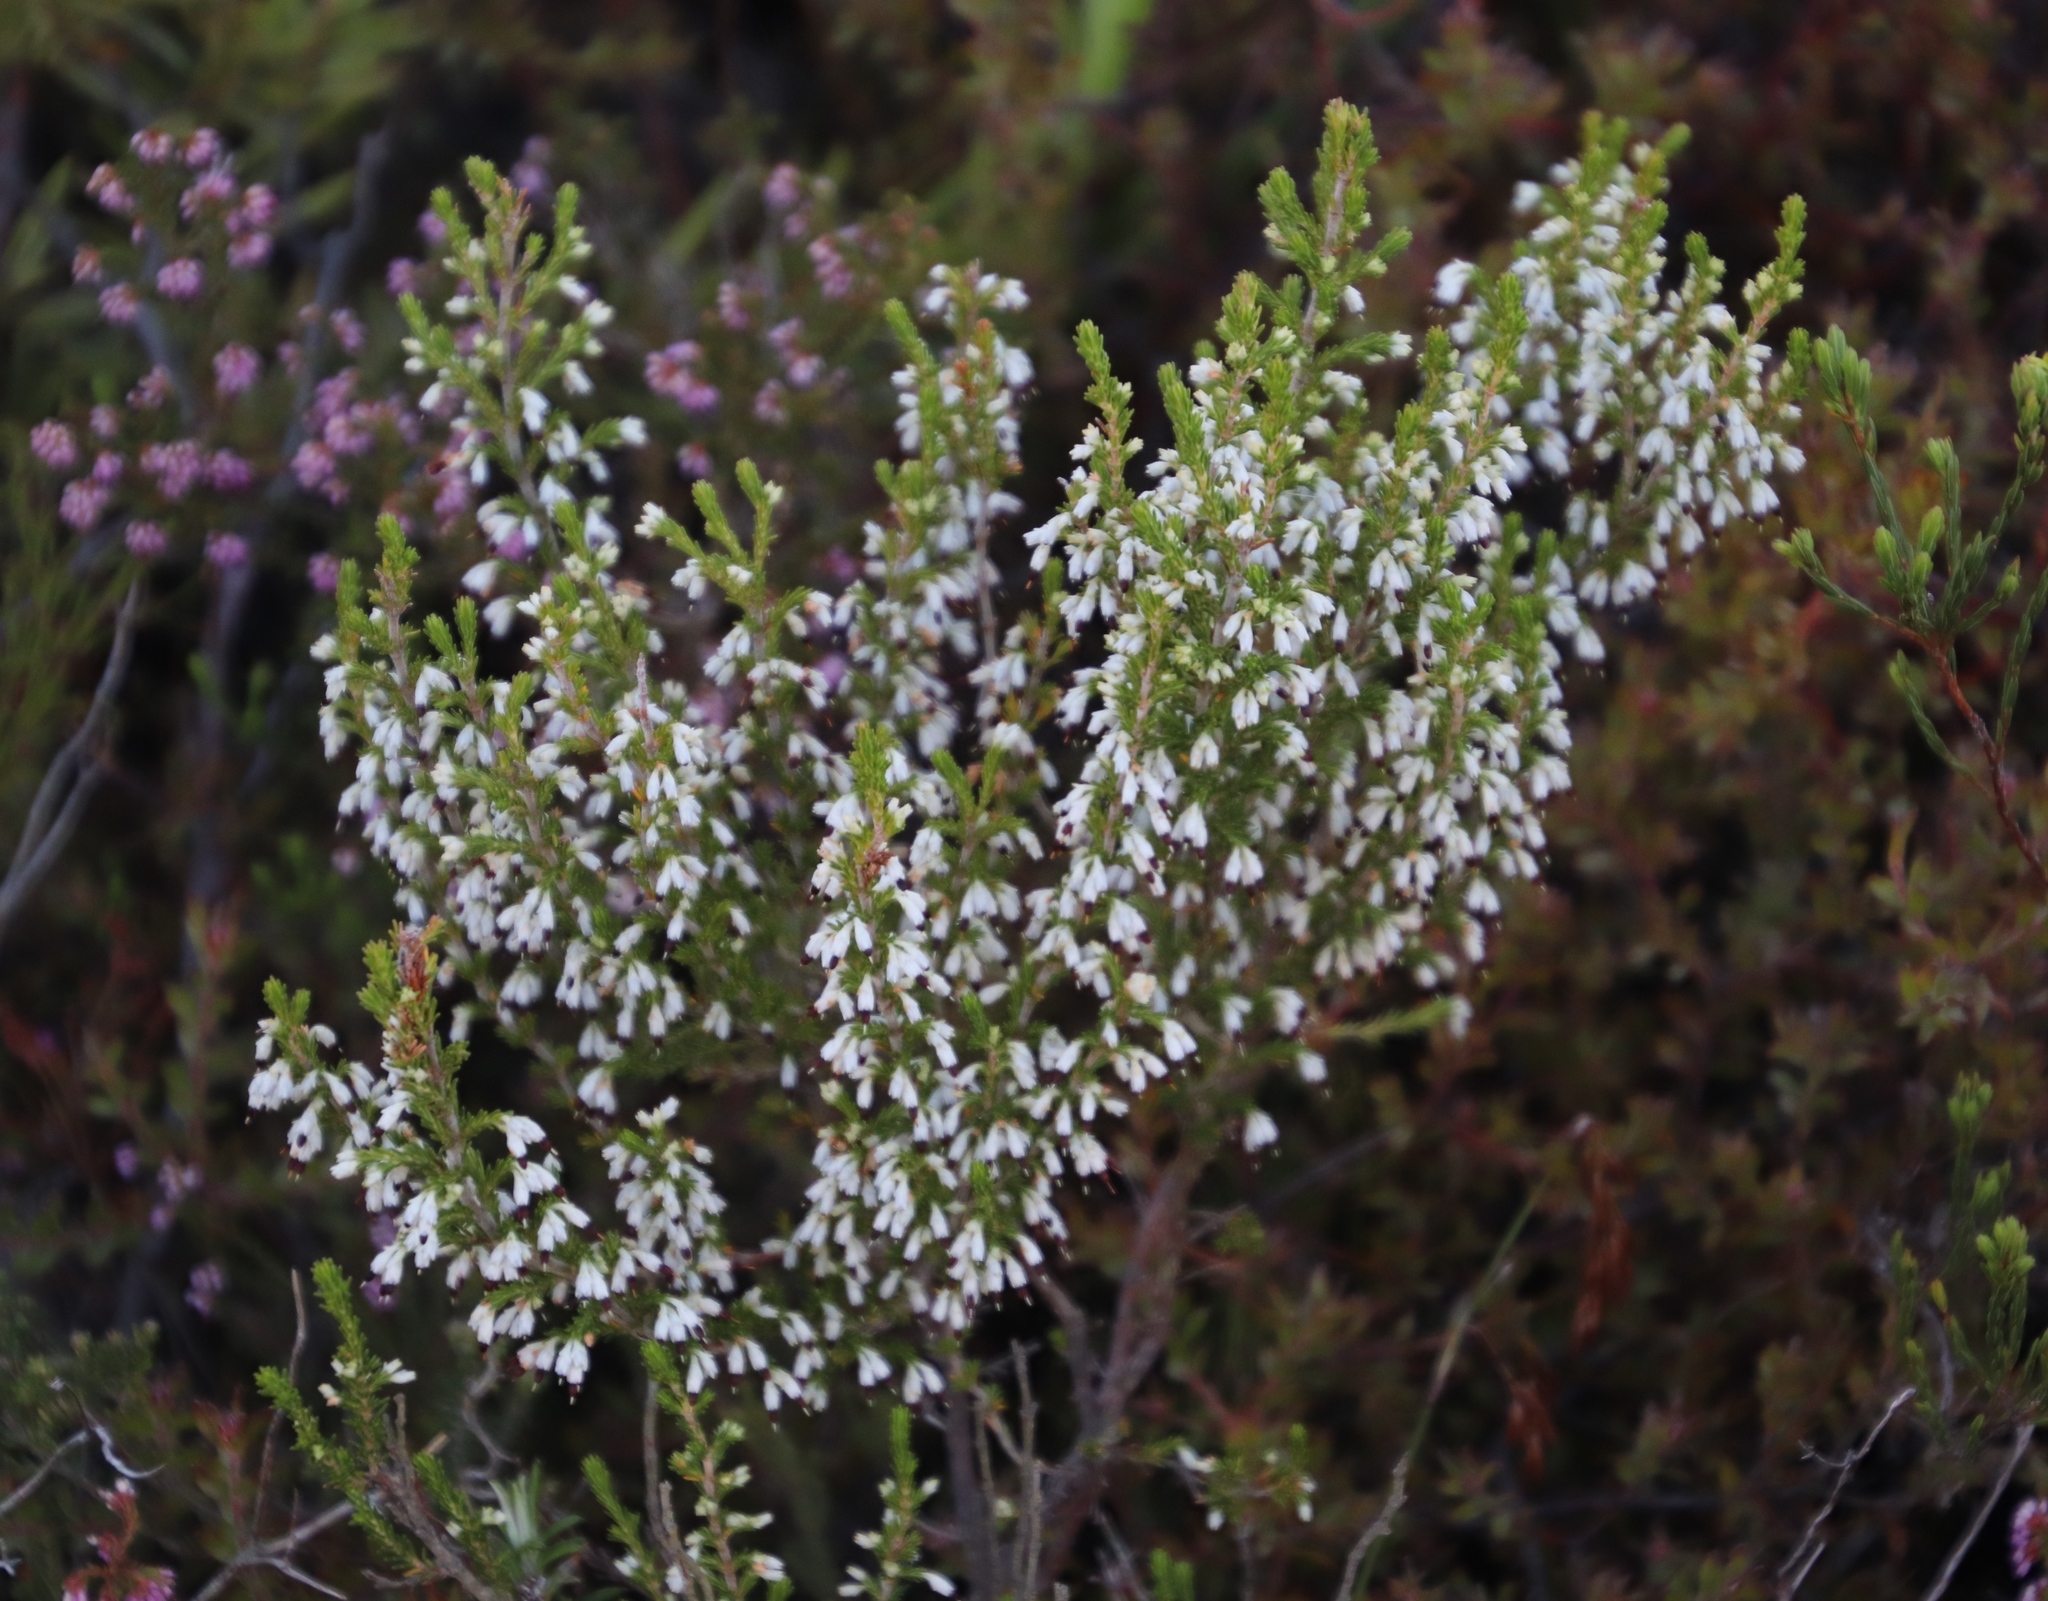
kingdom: Plantae
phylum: Tracheophyta
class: Magnoliopsida
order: Ericales
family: Ericaceae
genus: Erica
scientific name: Erica imbricata
